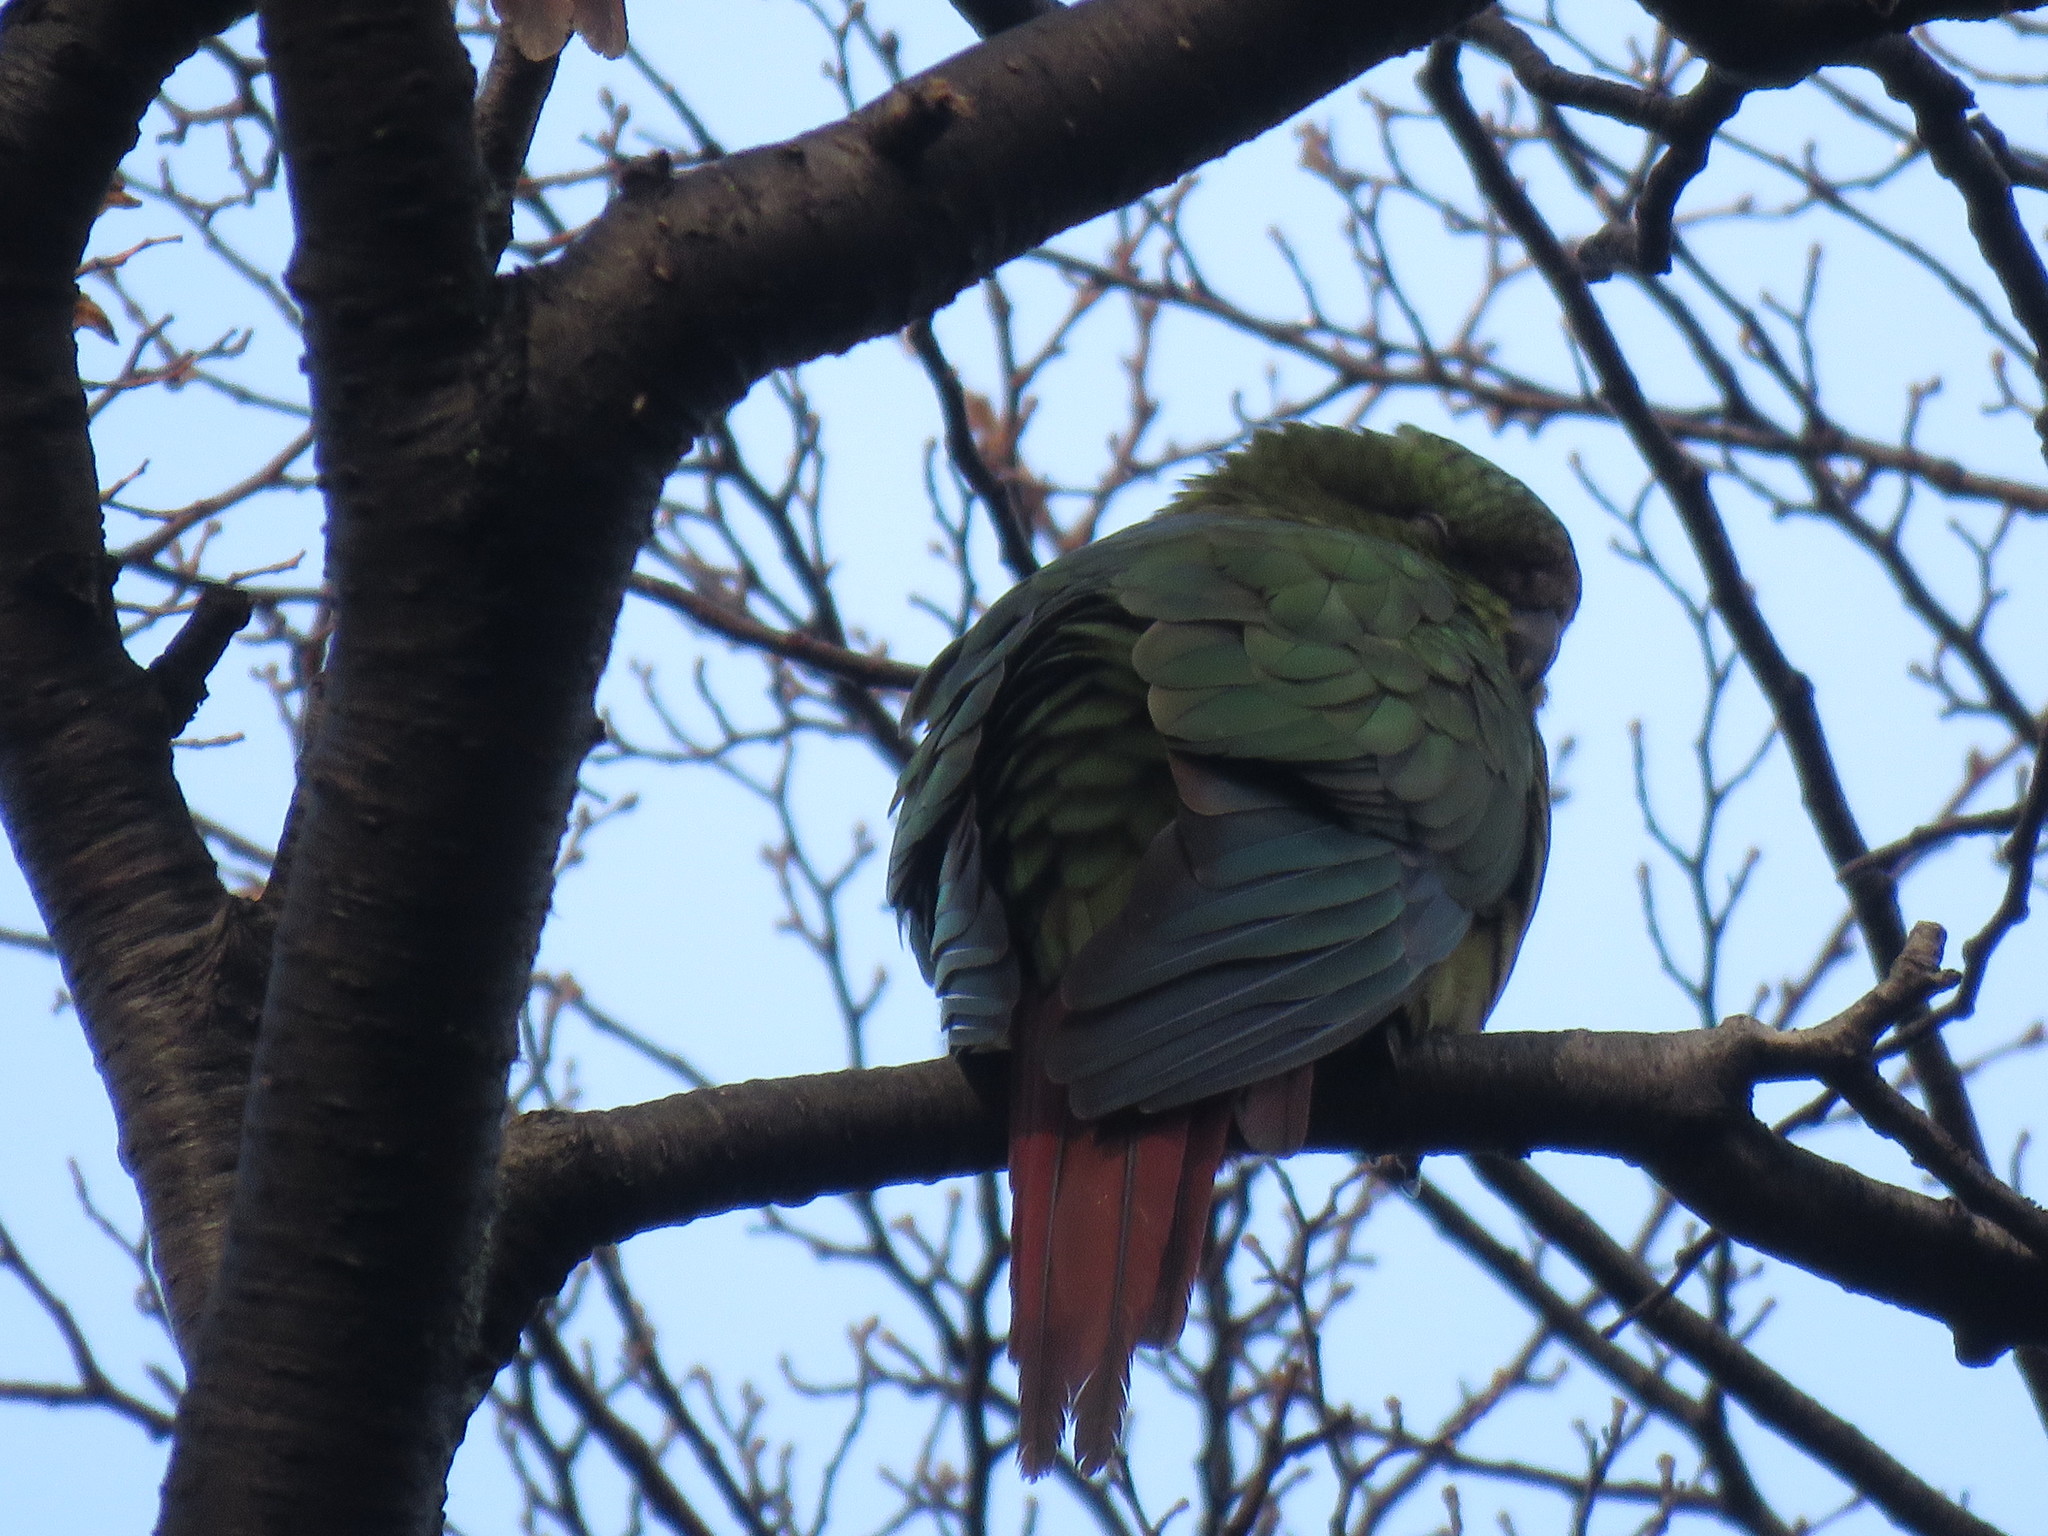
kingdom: Animalia
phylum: Chordata
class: Aves
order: Psittaciformes
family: Psittacidae
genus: Enicognathus
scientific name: Enicognathus ferrugineus
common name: Austral parakeet
